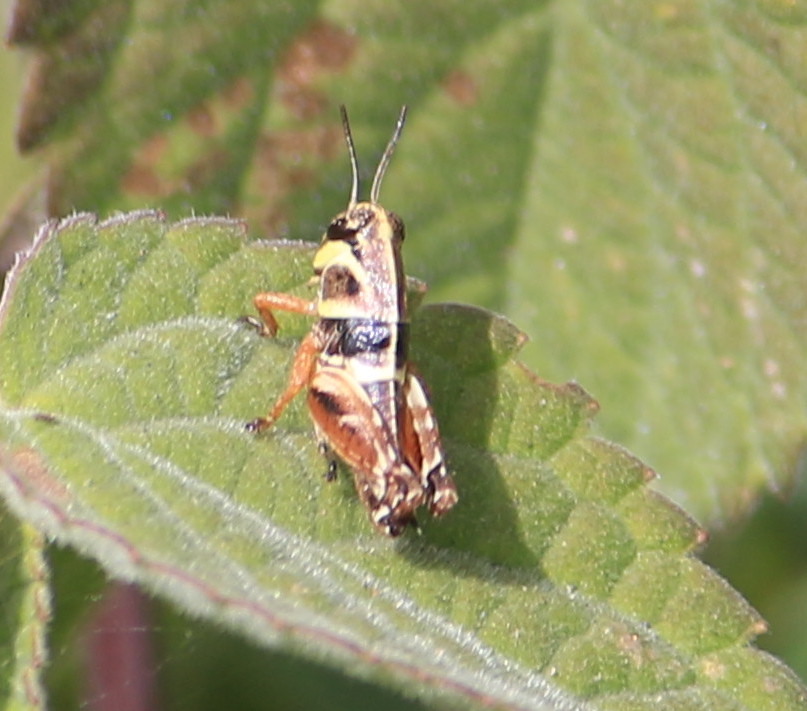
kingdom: Animalia
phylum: Arthropoda
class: Insecta
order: Orthoptera
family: Acrididae
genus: Aidemona
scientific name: Aidemona azteca
